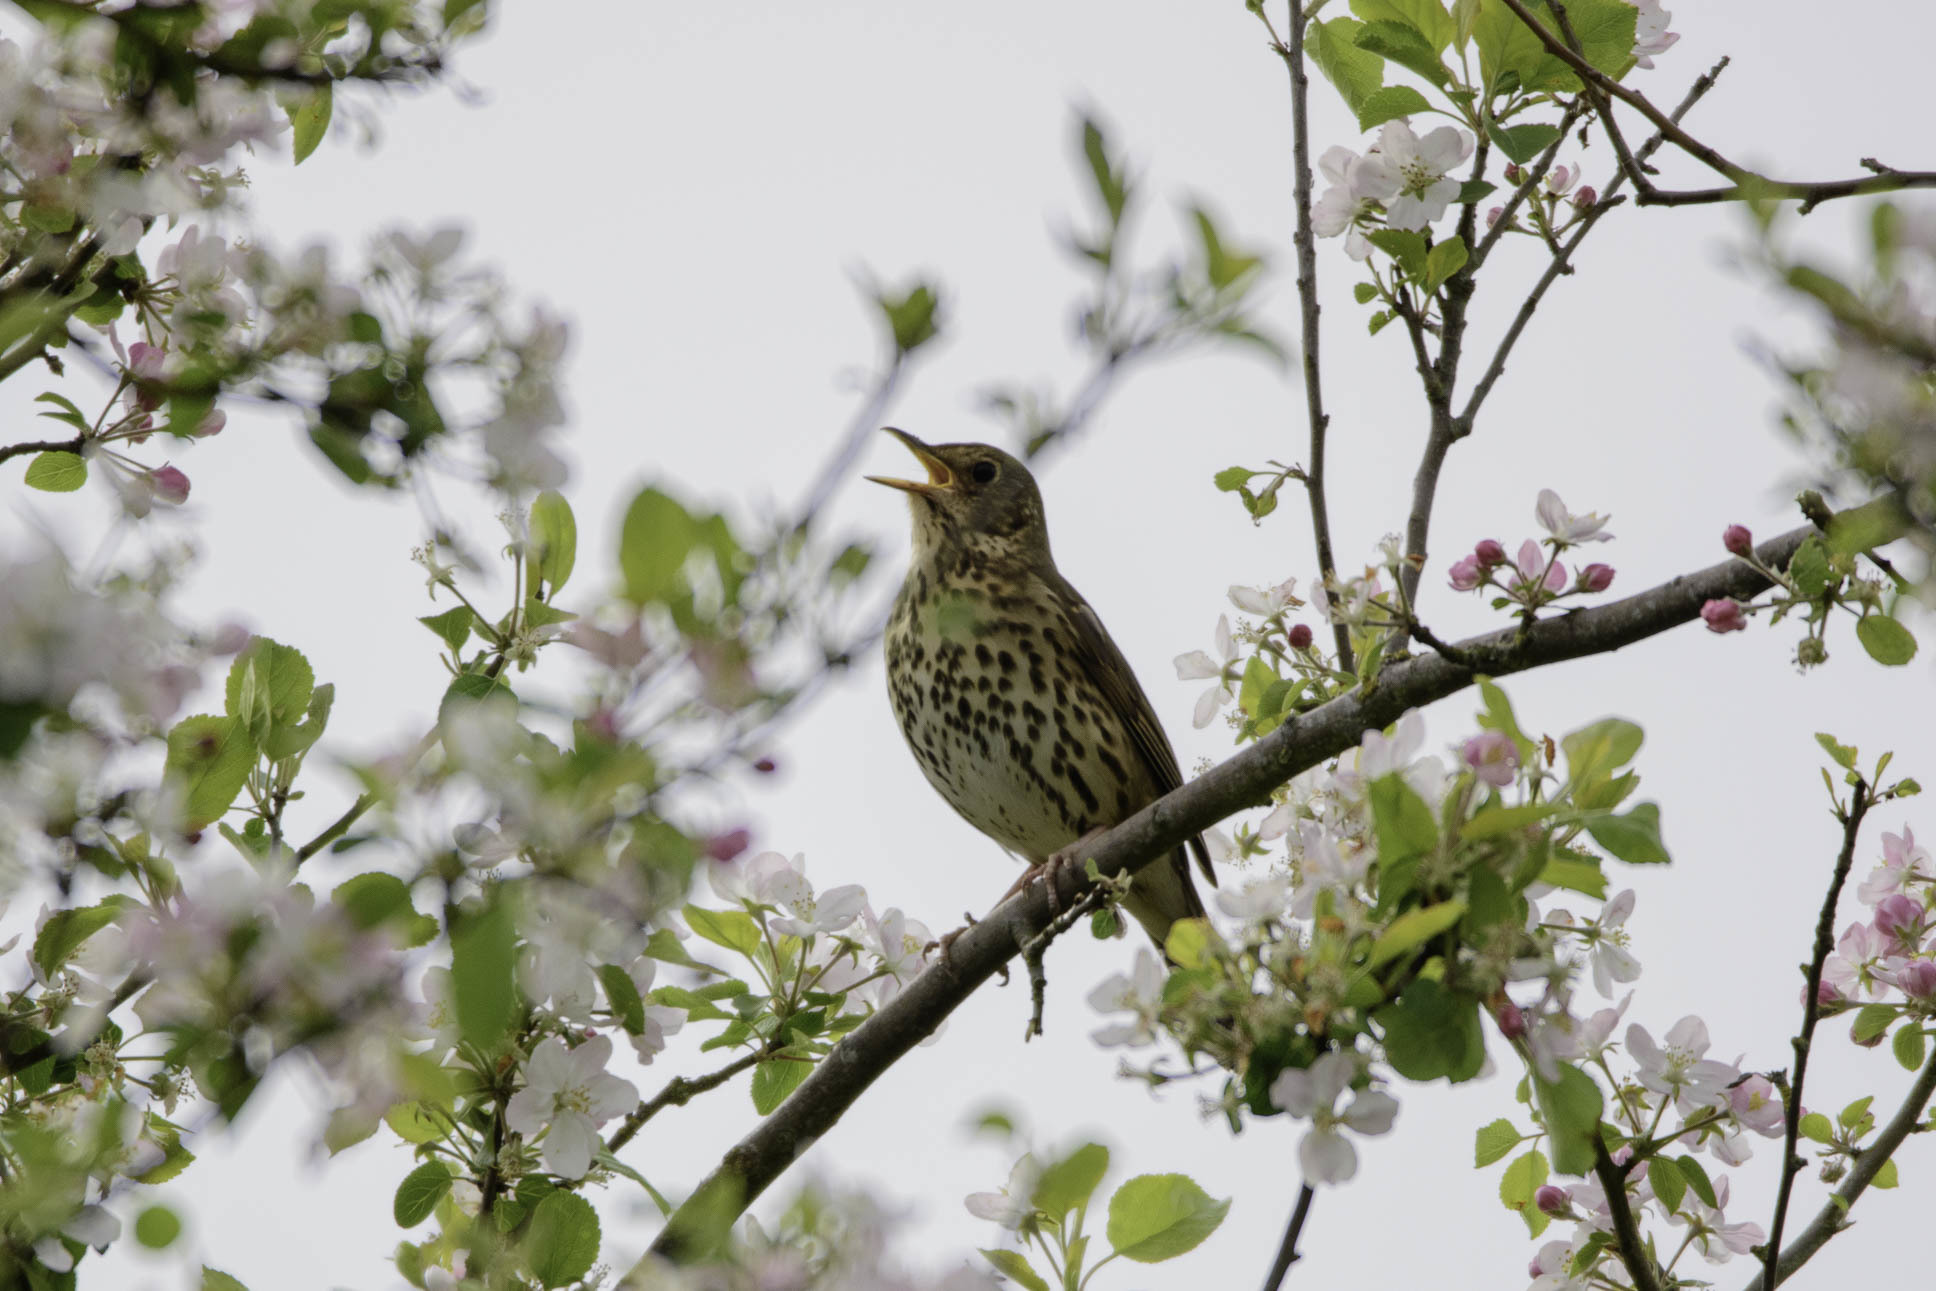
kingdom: Animalia
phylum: Chordata
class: Aves
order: Passeriformes
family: Turdidae
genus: Turdus
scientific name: Turdus philomelos
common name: Song thrush
